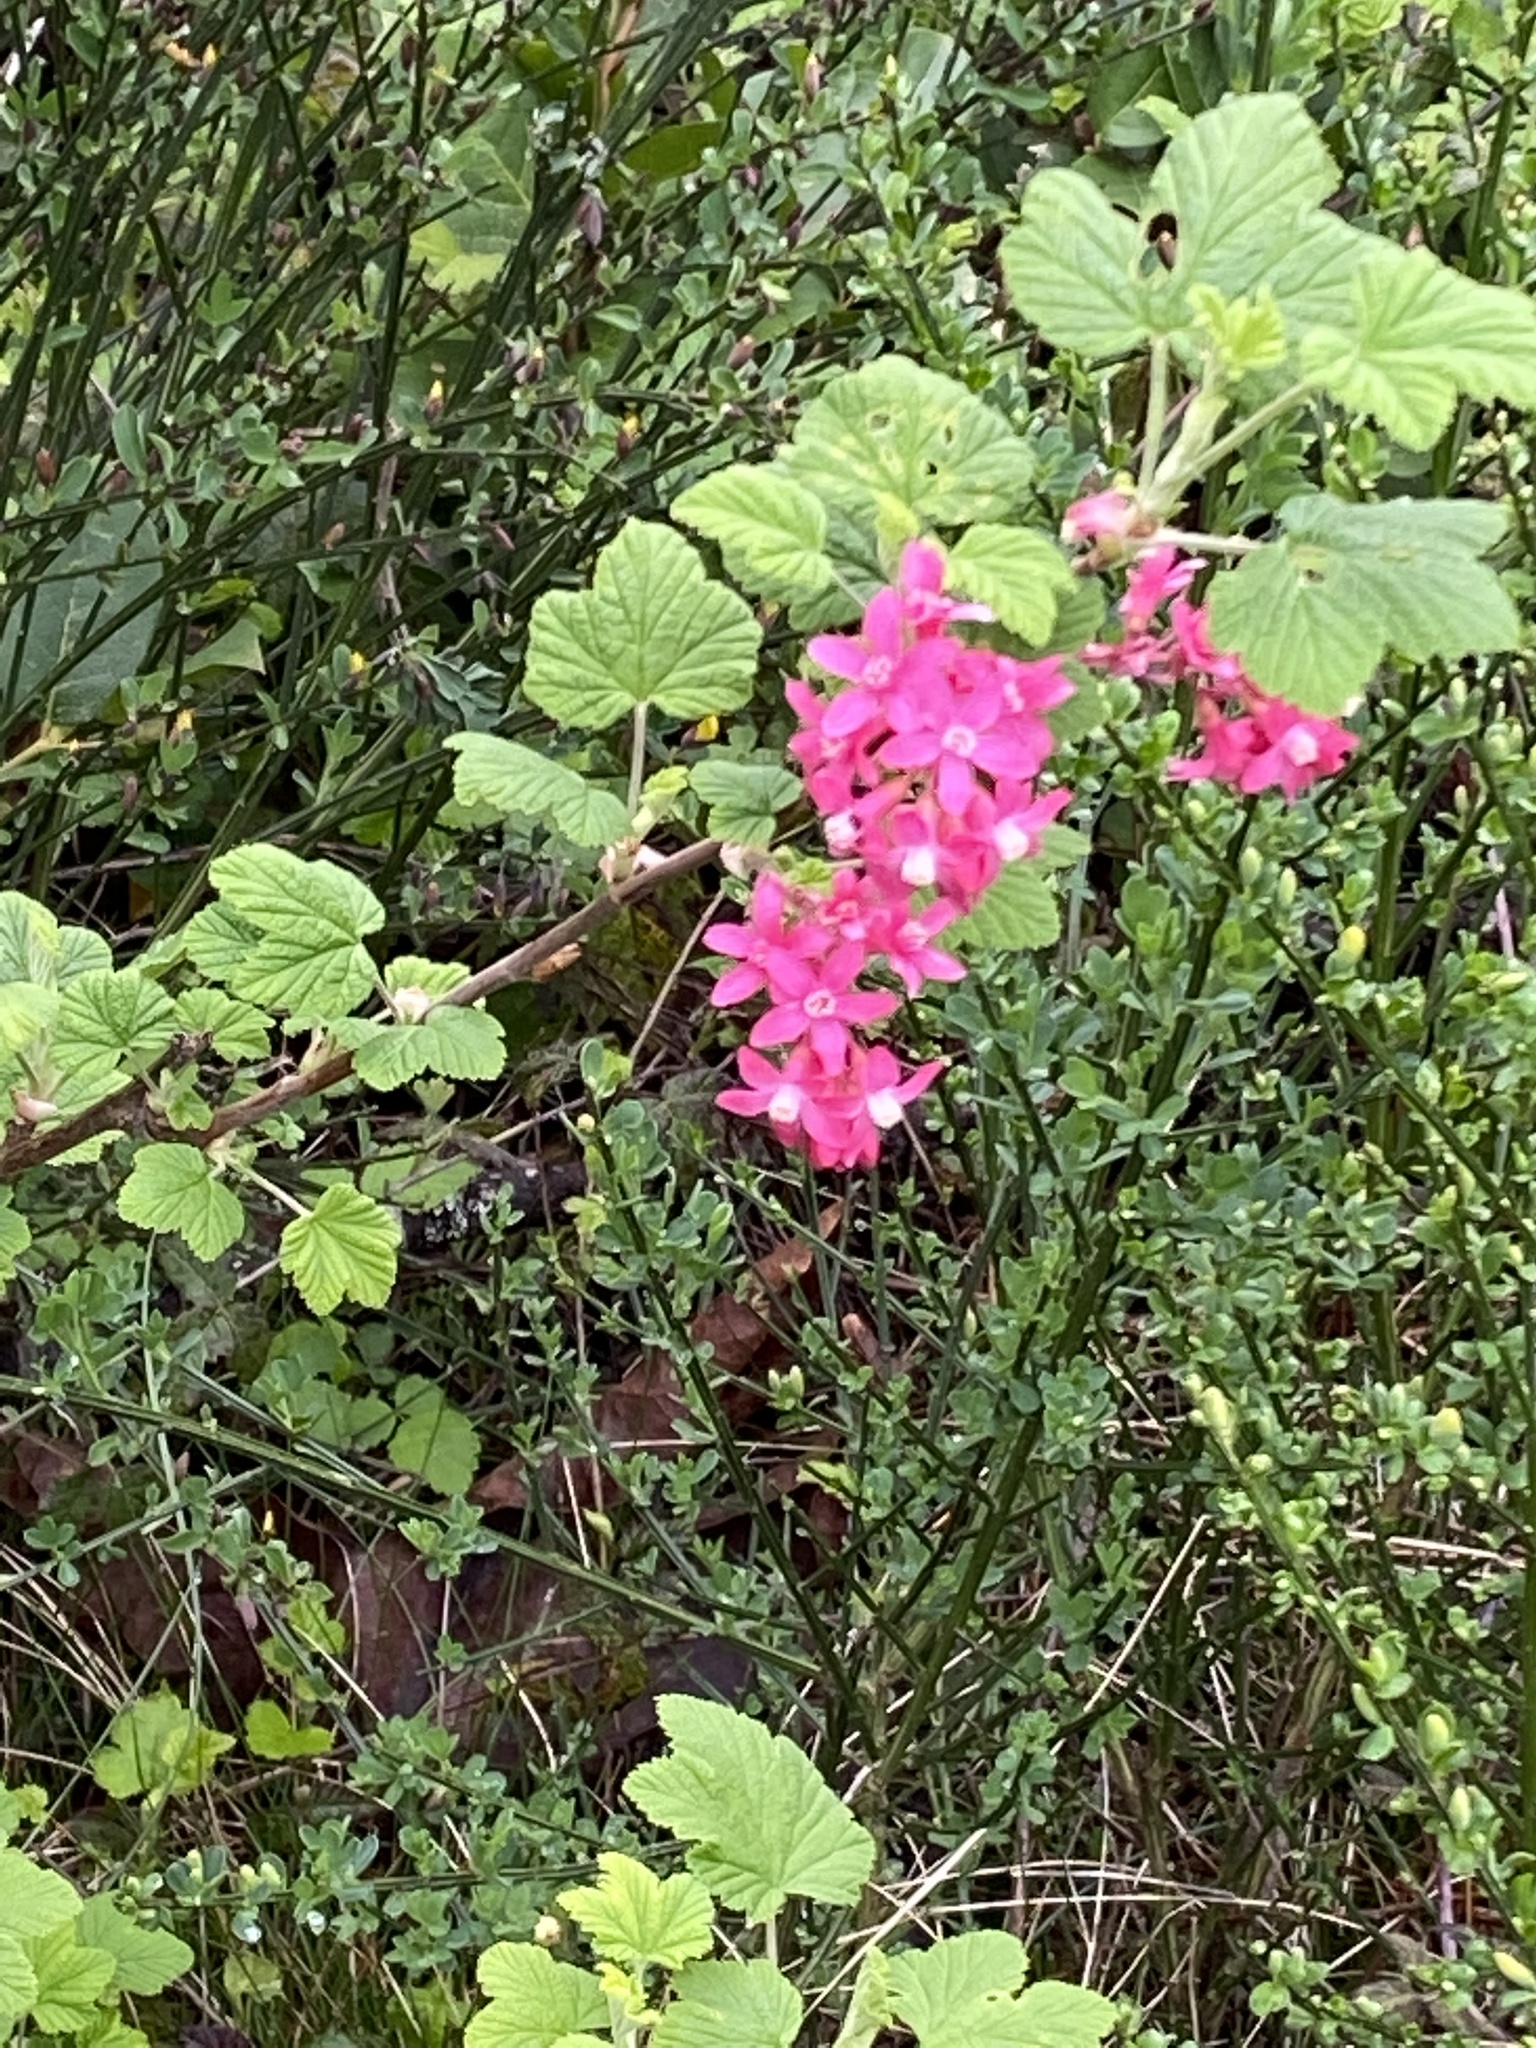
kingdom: Plantae
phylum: Tracheophyta
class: Magnoliopsida
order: Saxifragales
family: Grossulariaceae
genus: Ribes
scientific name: Ribes sanguineum
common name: Flowering currant
